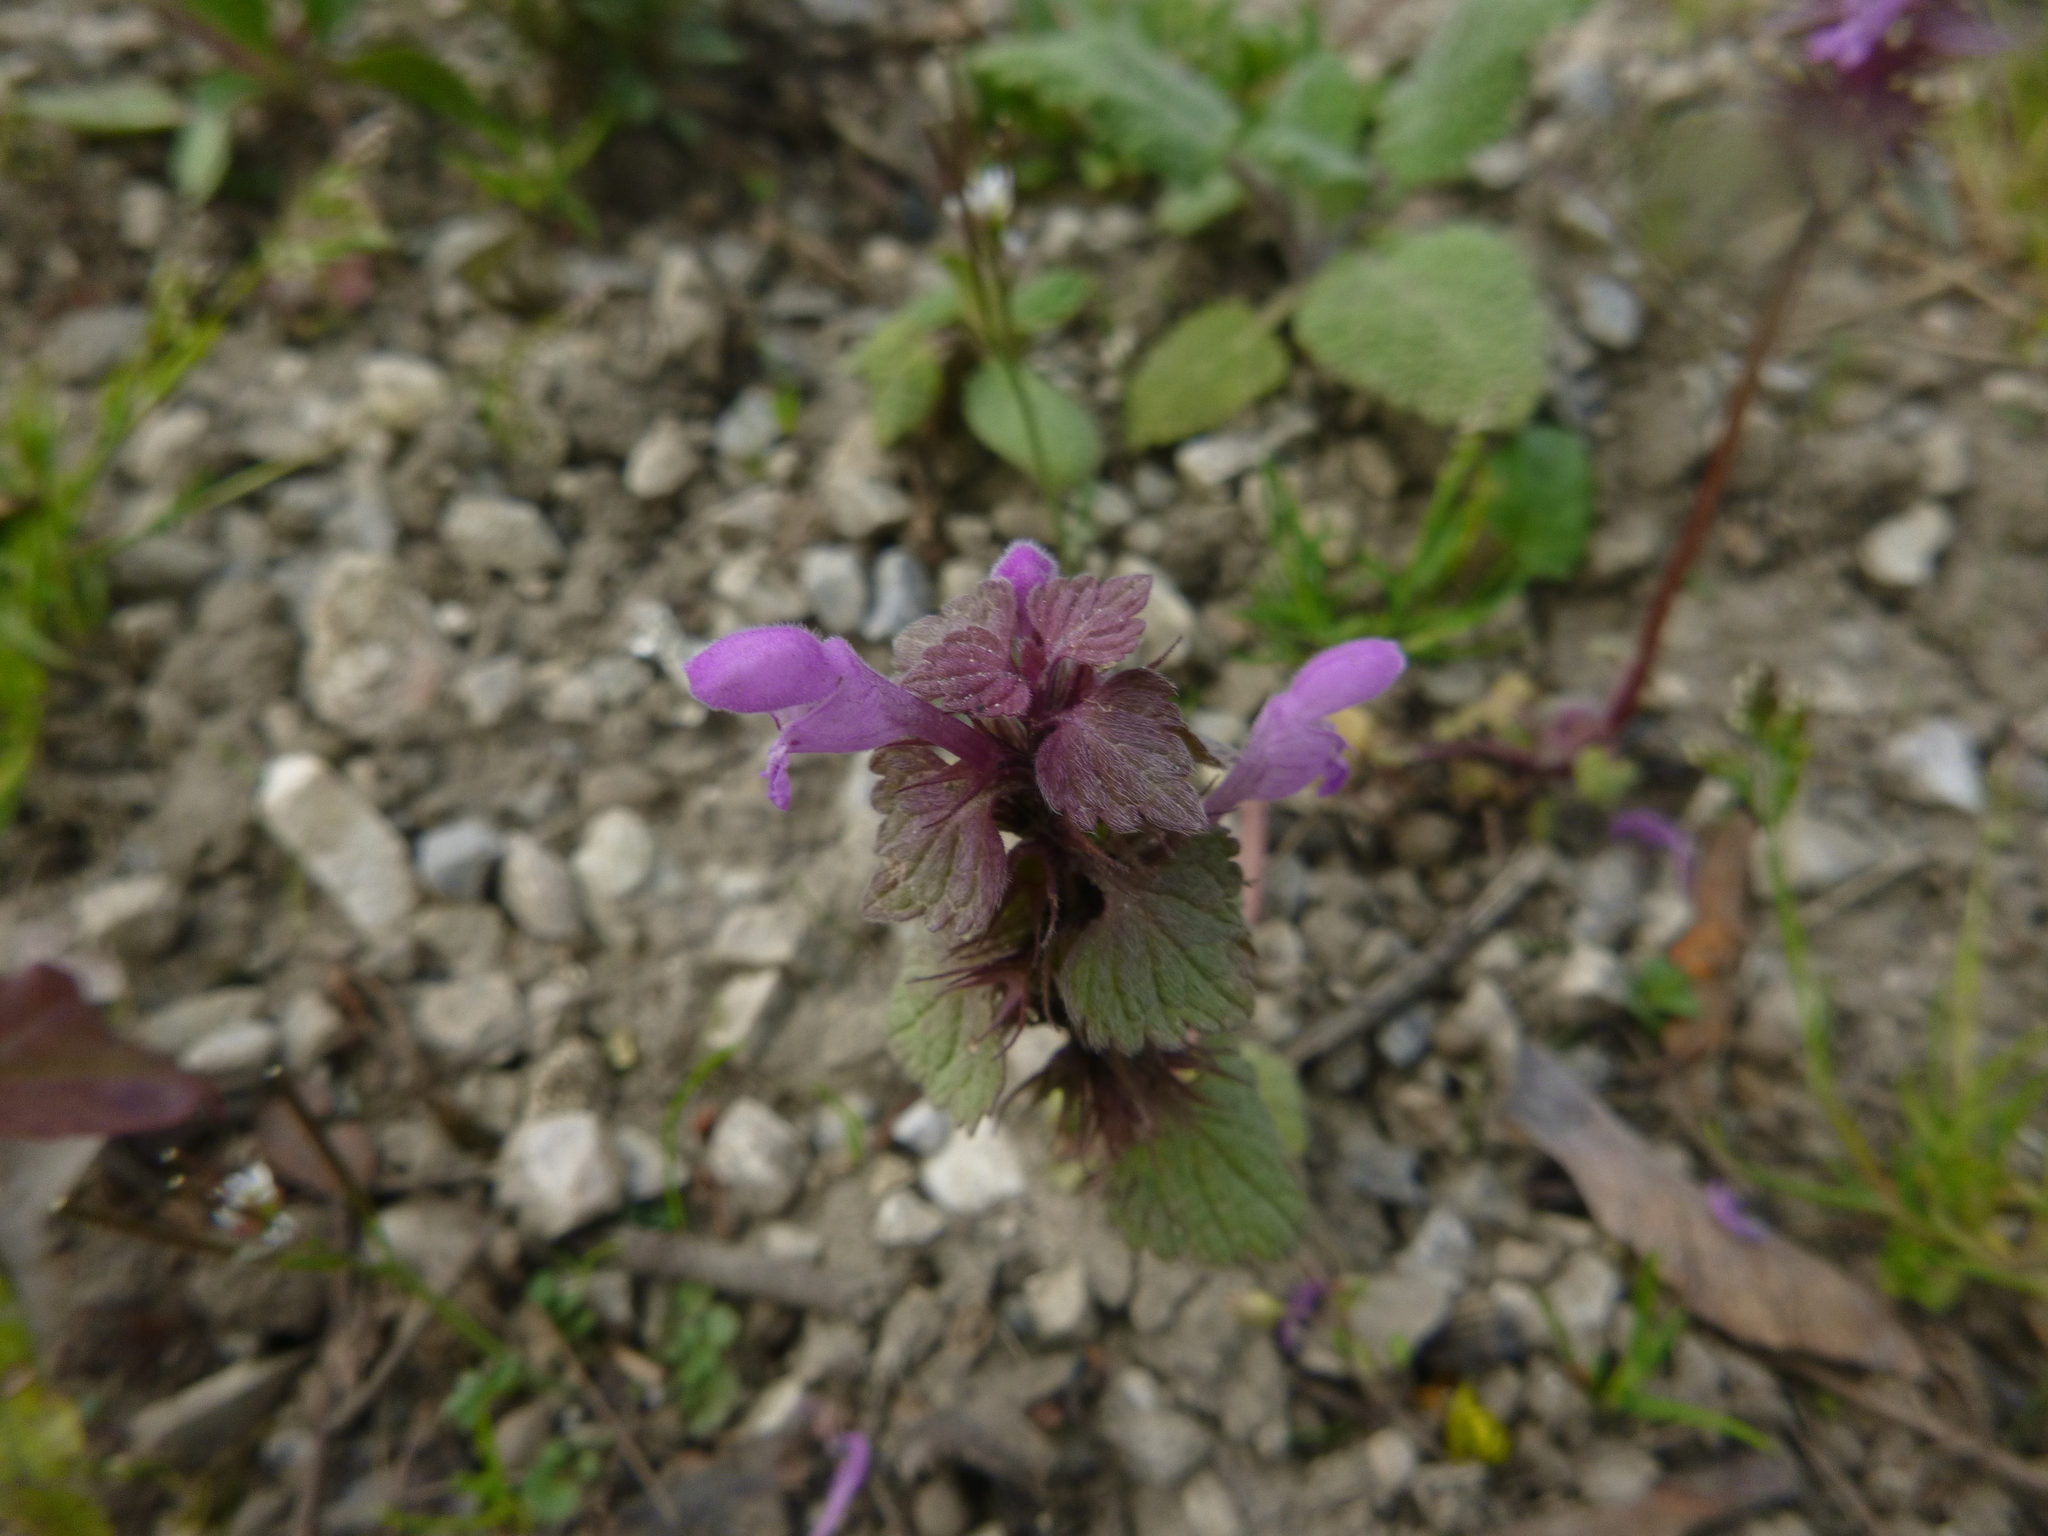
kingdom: Plantae
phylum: Tracheophyta
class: Magnoliopsida
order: Lamiales
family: Lamiaceae
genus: Lamium
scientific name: Lamium purpureum
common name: Red dead-nettle
